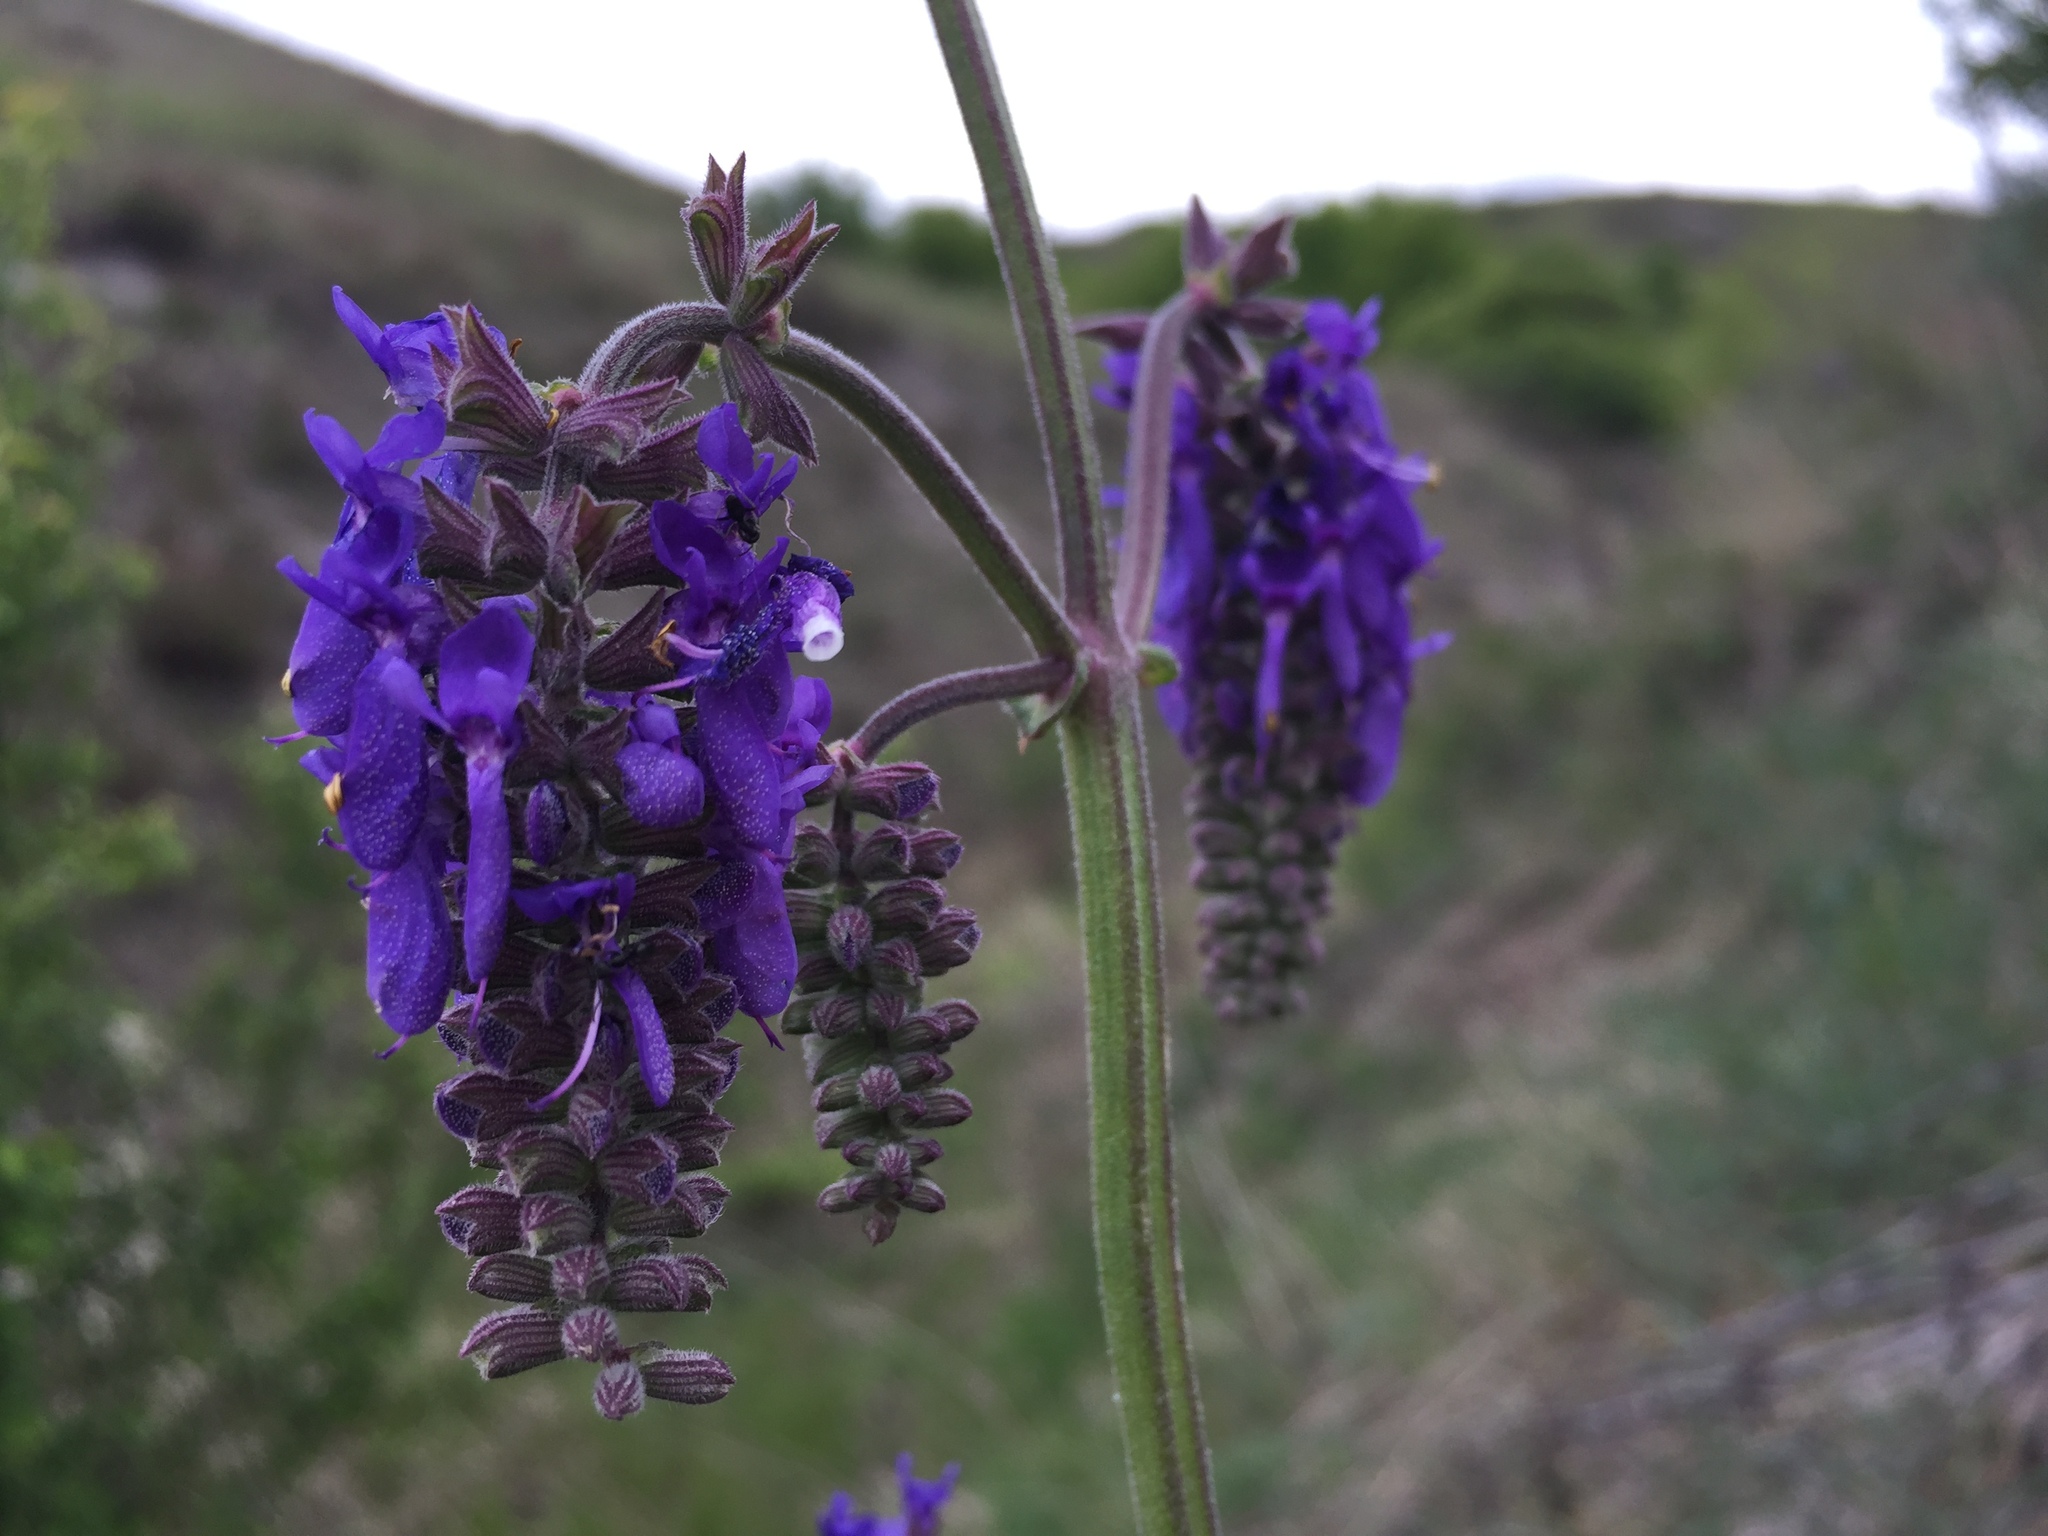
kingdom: Plantae
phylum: Tracheophyta
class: Magnoliopsida
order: Lamiales
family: Lamiaceae
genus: Salvia
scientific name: Salvia nutans
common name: Nodding sage
